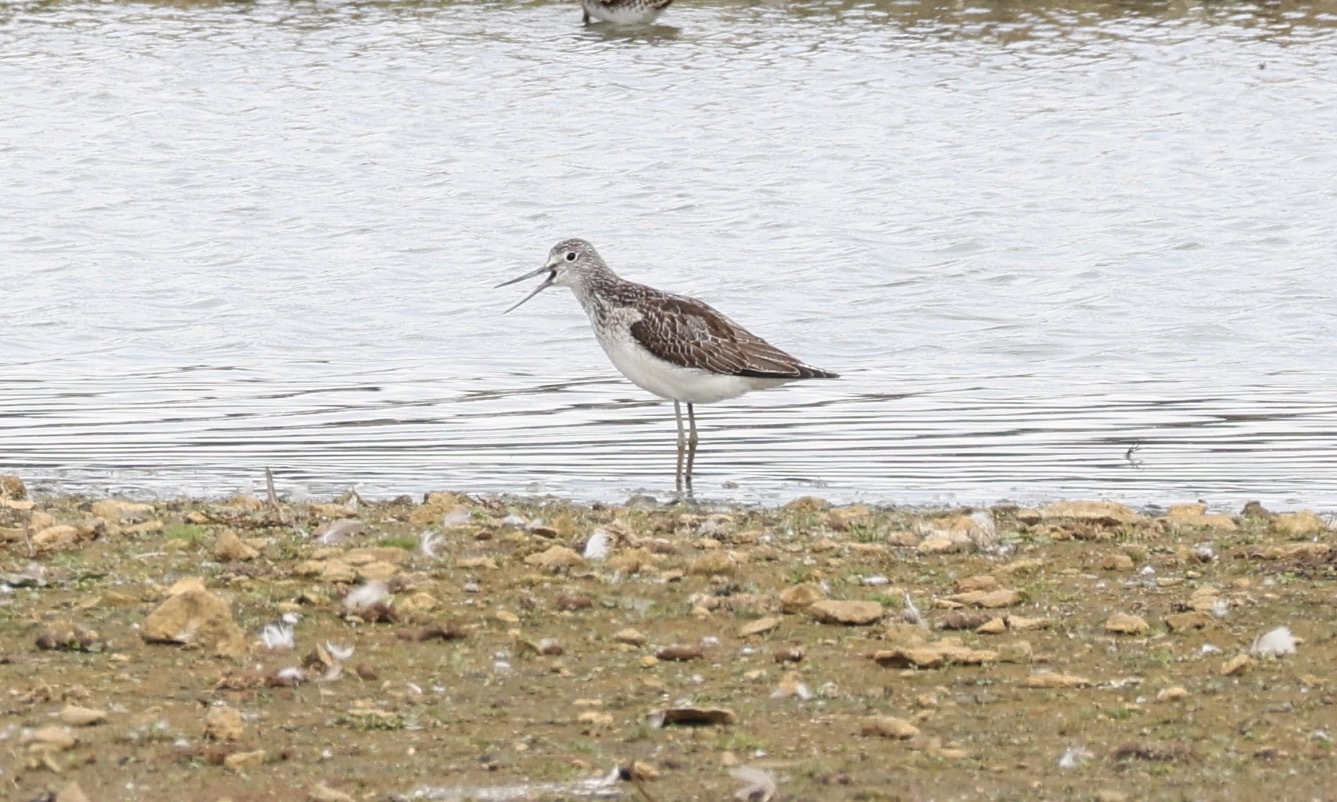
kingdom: Animalia
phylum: Chordata
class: Aves
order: Charadriiformes
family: Scolopacidae
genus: Tringa
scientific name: Tringa nebularia
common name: Common greenshank
